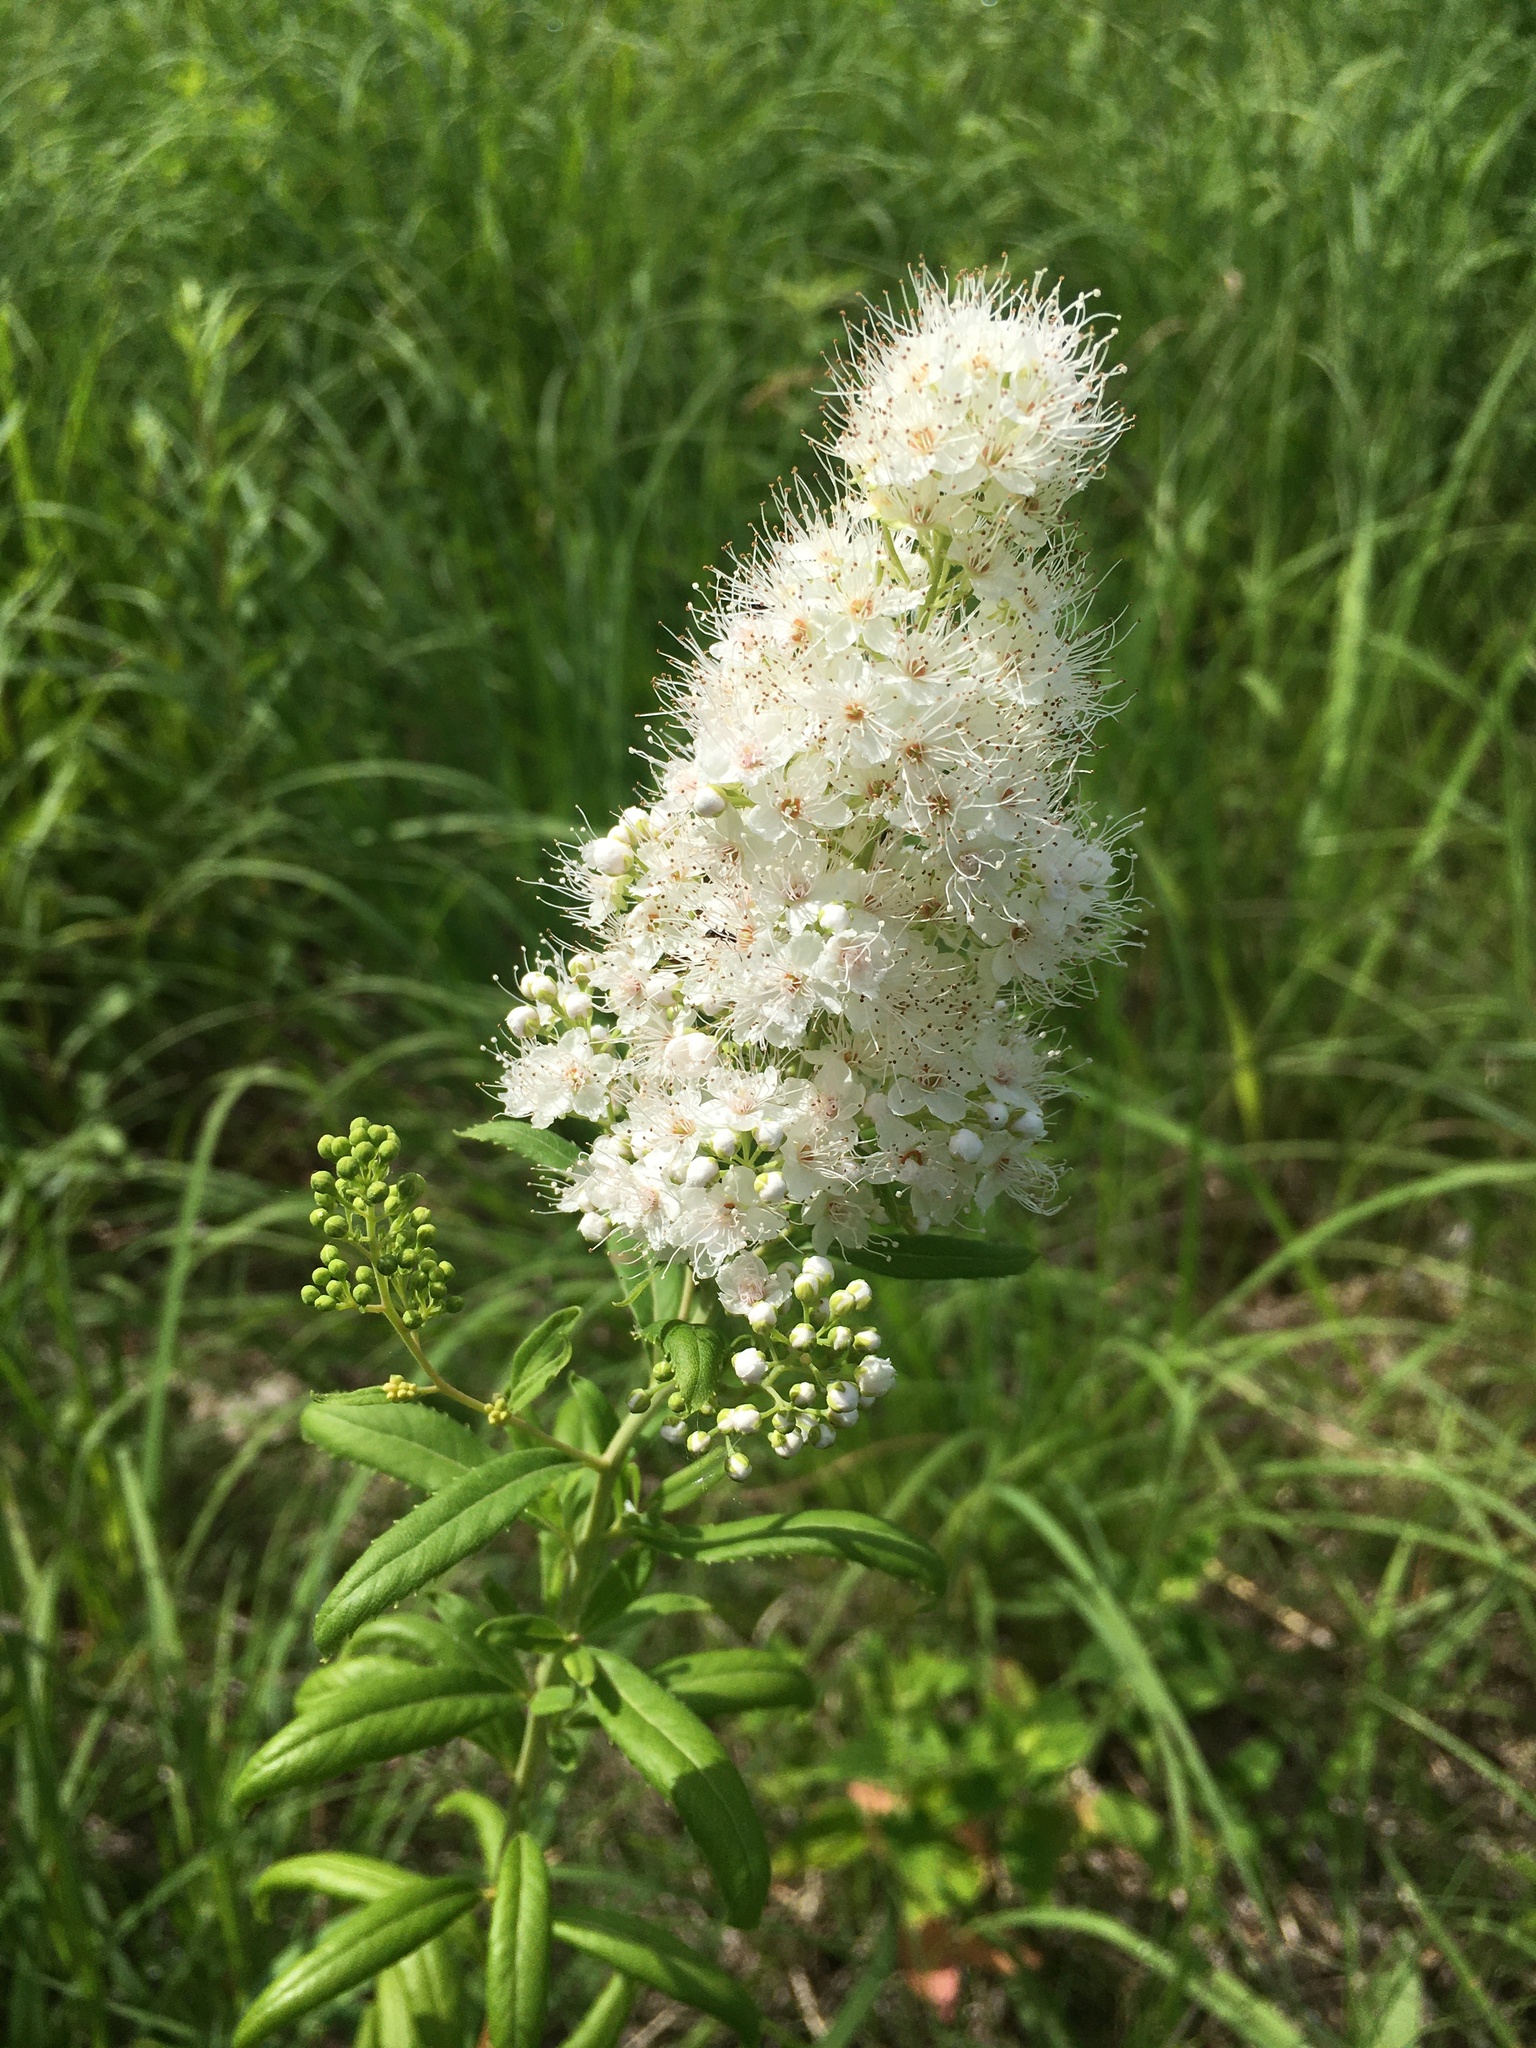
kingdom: Plantae
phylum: Tracheophyta
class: Magnoliopsida
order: Rosales
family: Rosaceae
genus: Spiraea
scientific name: Spiraea alba
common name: Pale bridewort
